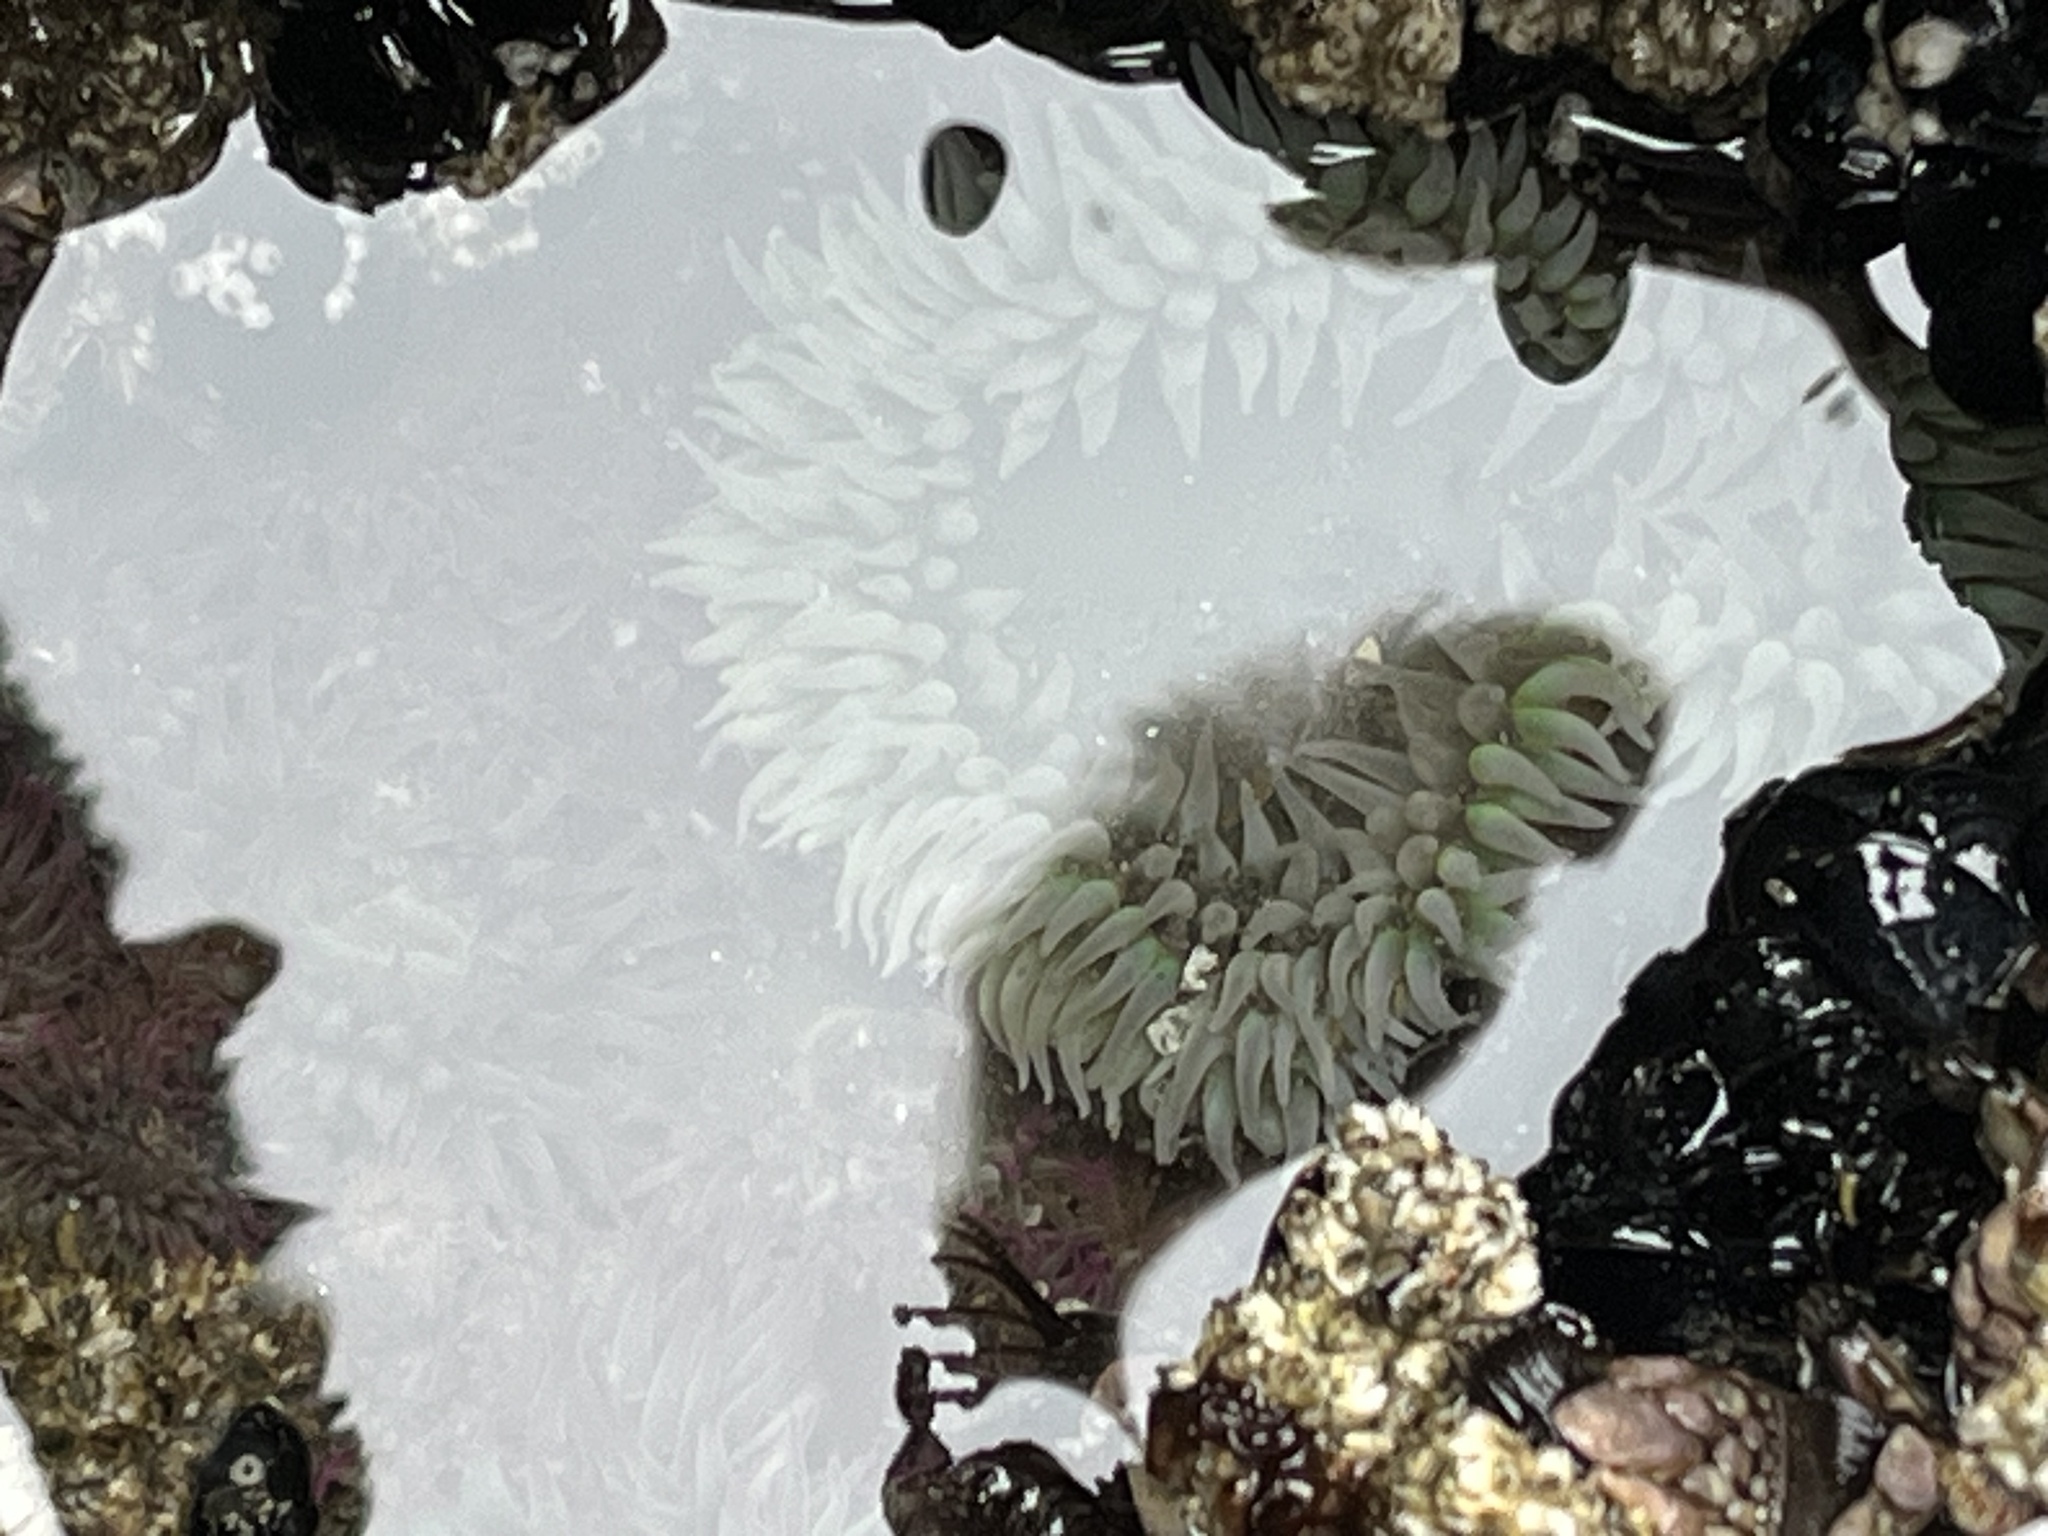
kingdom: Animalia
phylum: Cnidaria
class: Anthozoa
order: Actiniaria
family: Actiniidae
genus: Anthopleura
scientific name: Anthopleura xanthogrammica
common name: Giant green anemone
